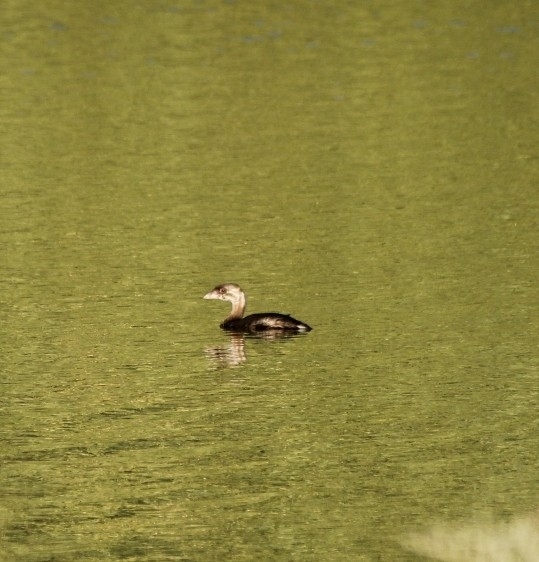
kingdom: Animalia
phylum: Chordata
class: Aves
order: Podicipediformes
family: Podicipedidae
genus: Podilymbus
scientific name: Podilymbus podiceps
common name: Pied-billed grebe
